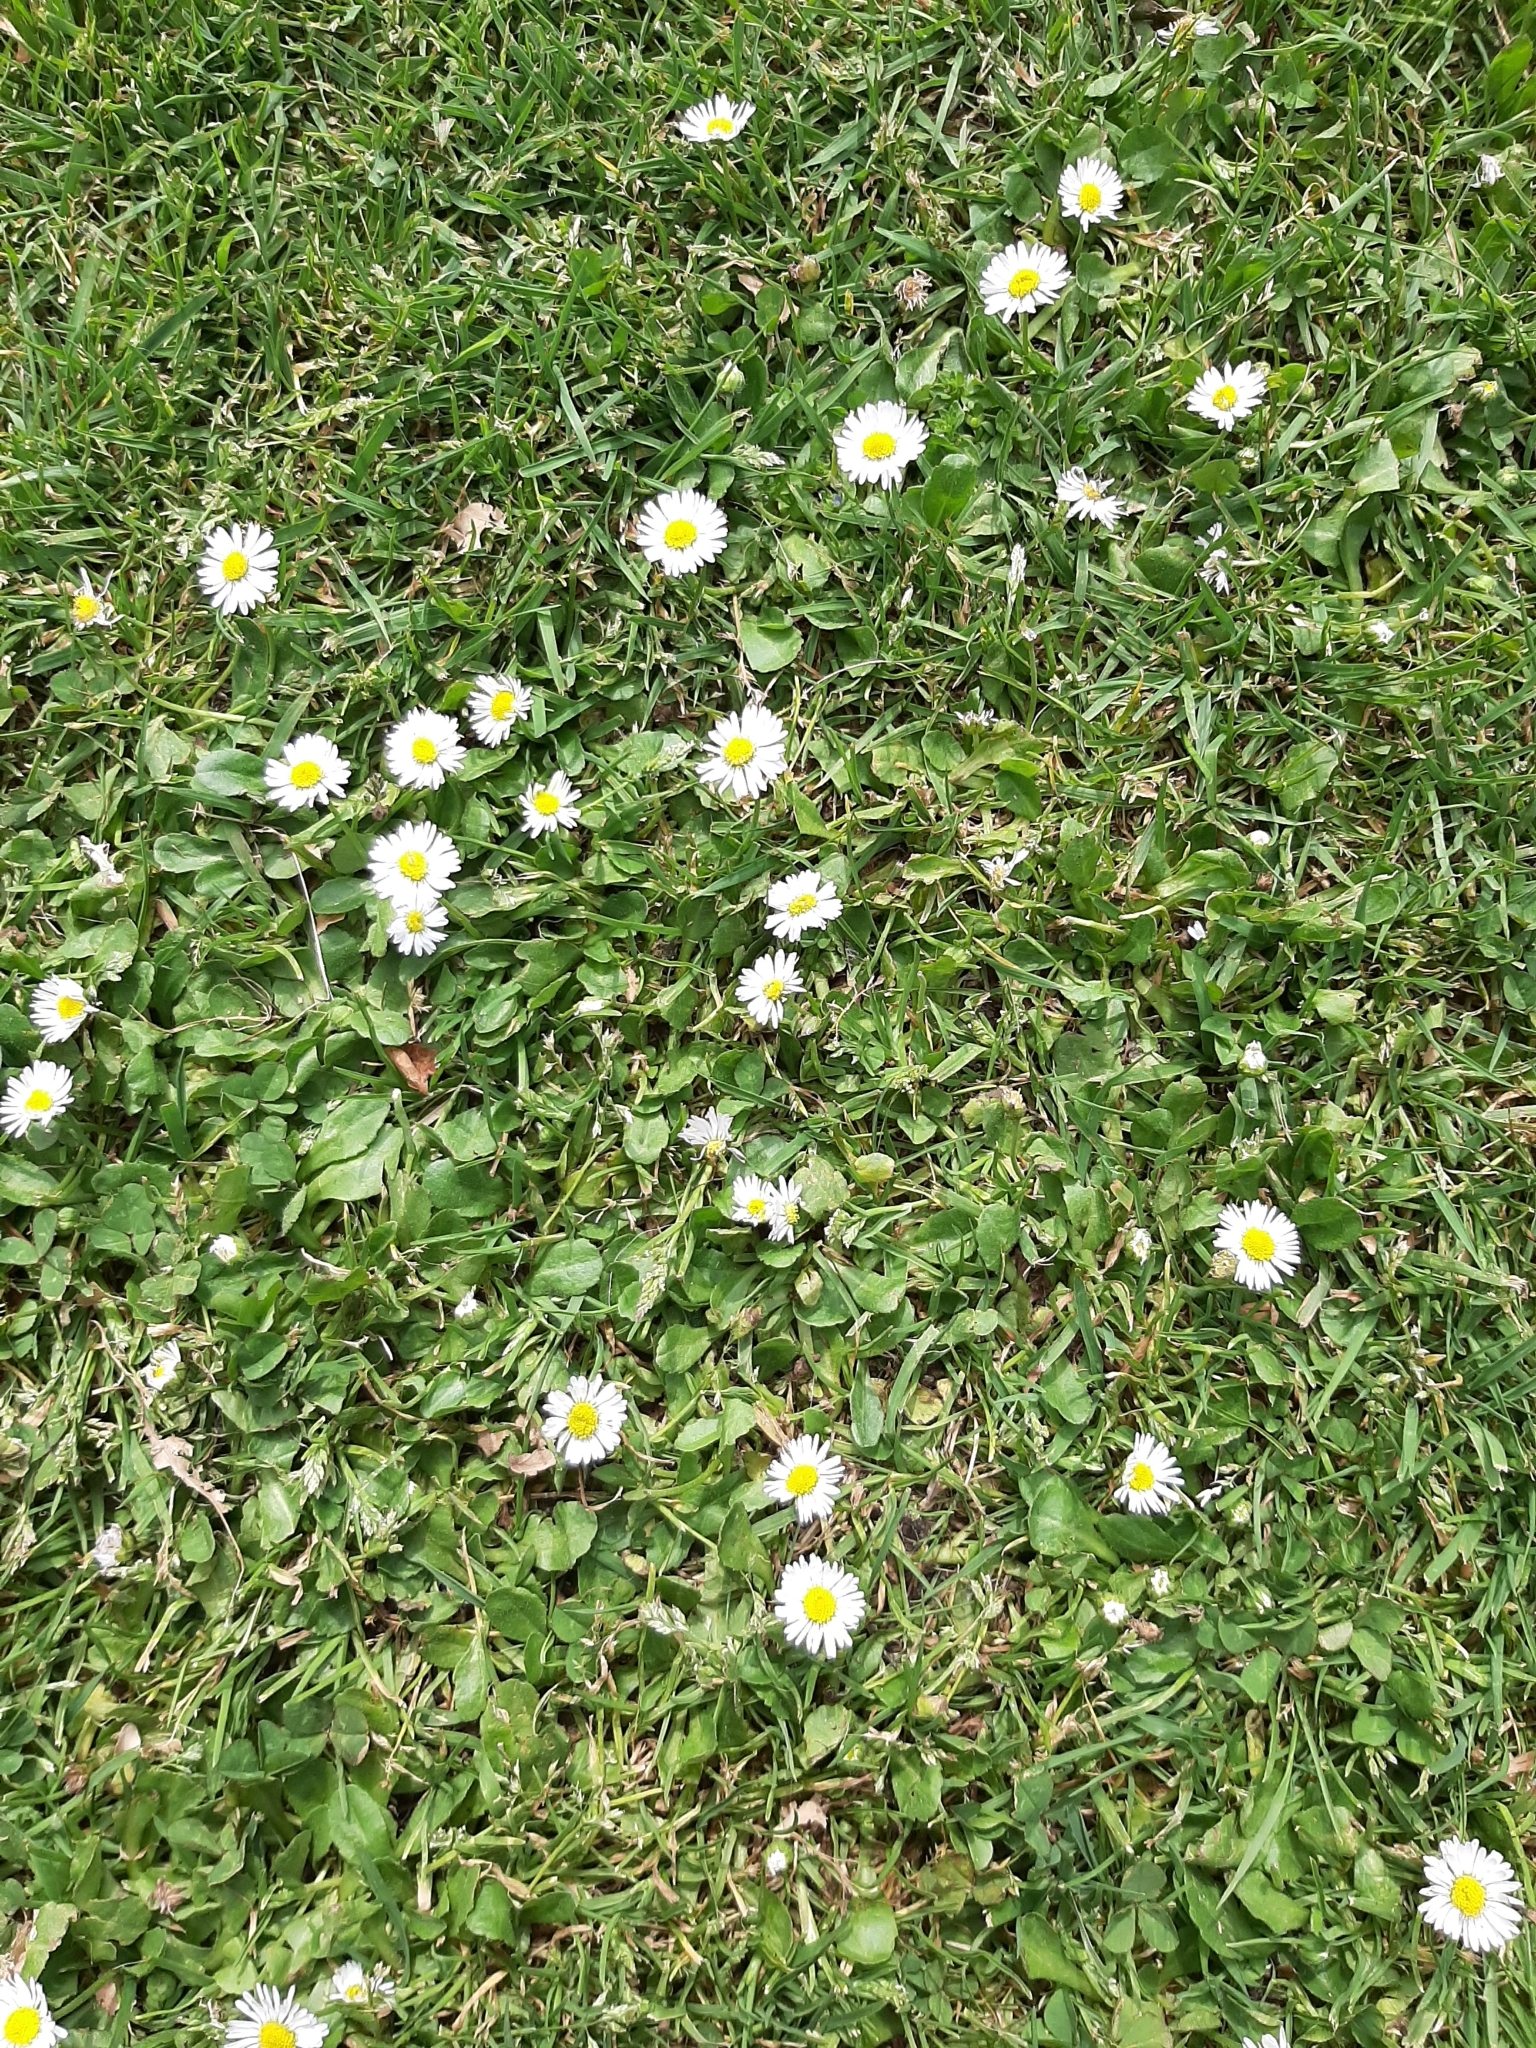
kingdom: Plantae
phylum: Tracheophyta
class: Magnoliopsida
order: Asterales
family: Asteraceae
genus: Bellis
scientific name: Bellis perennis
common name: Lawndaisy
